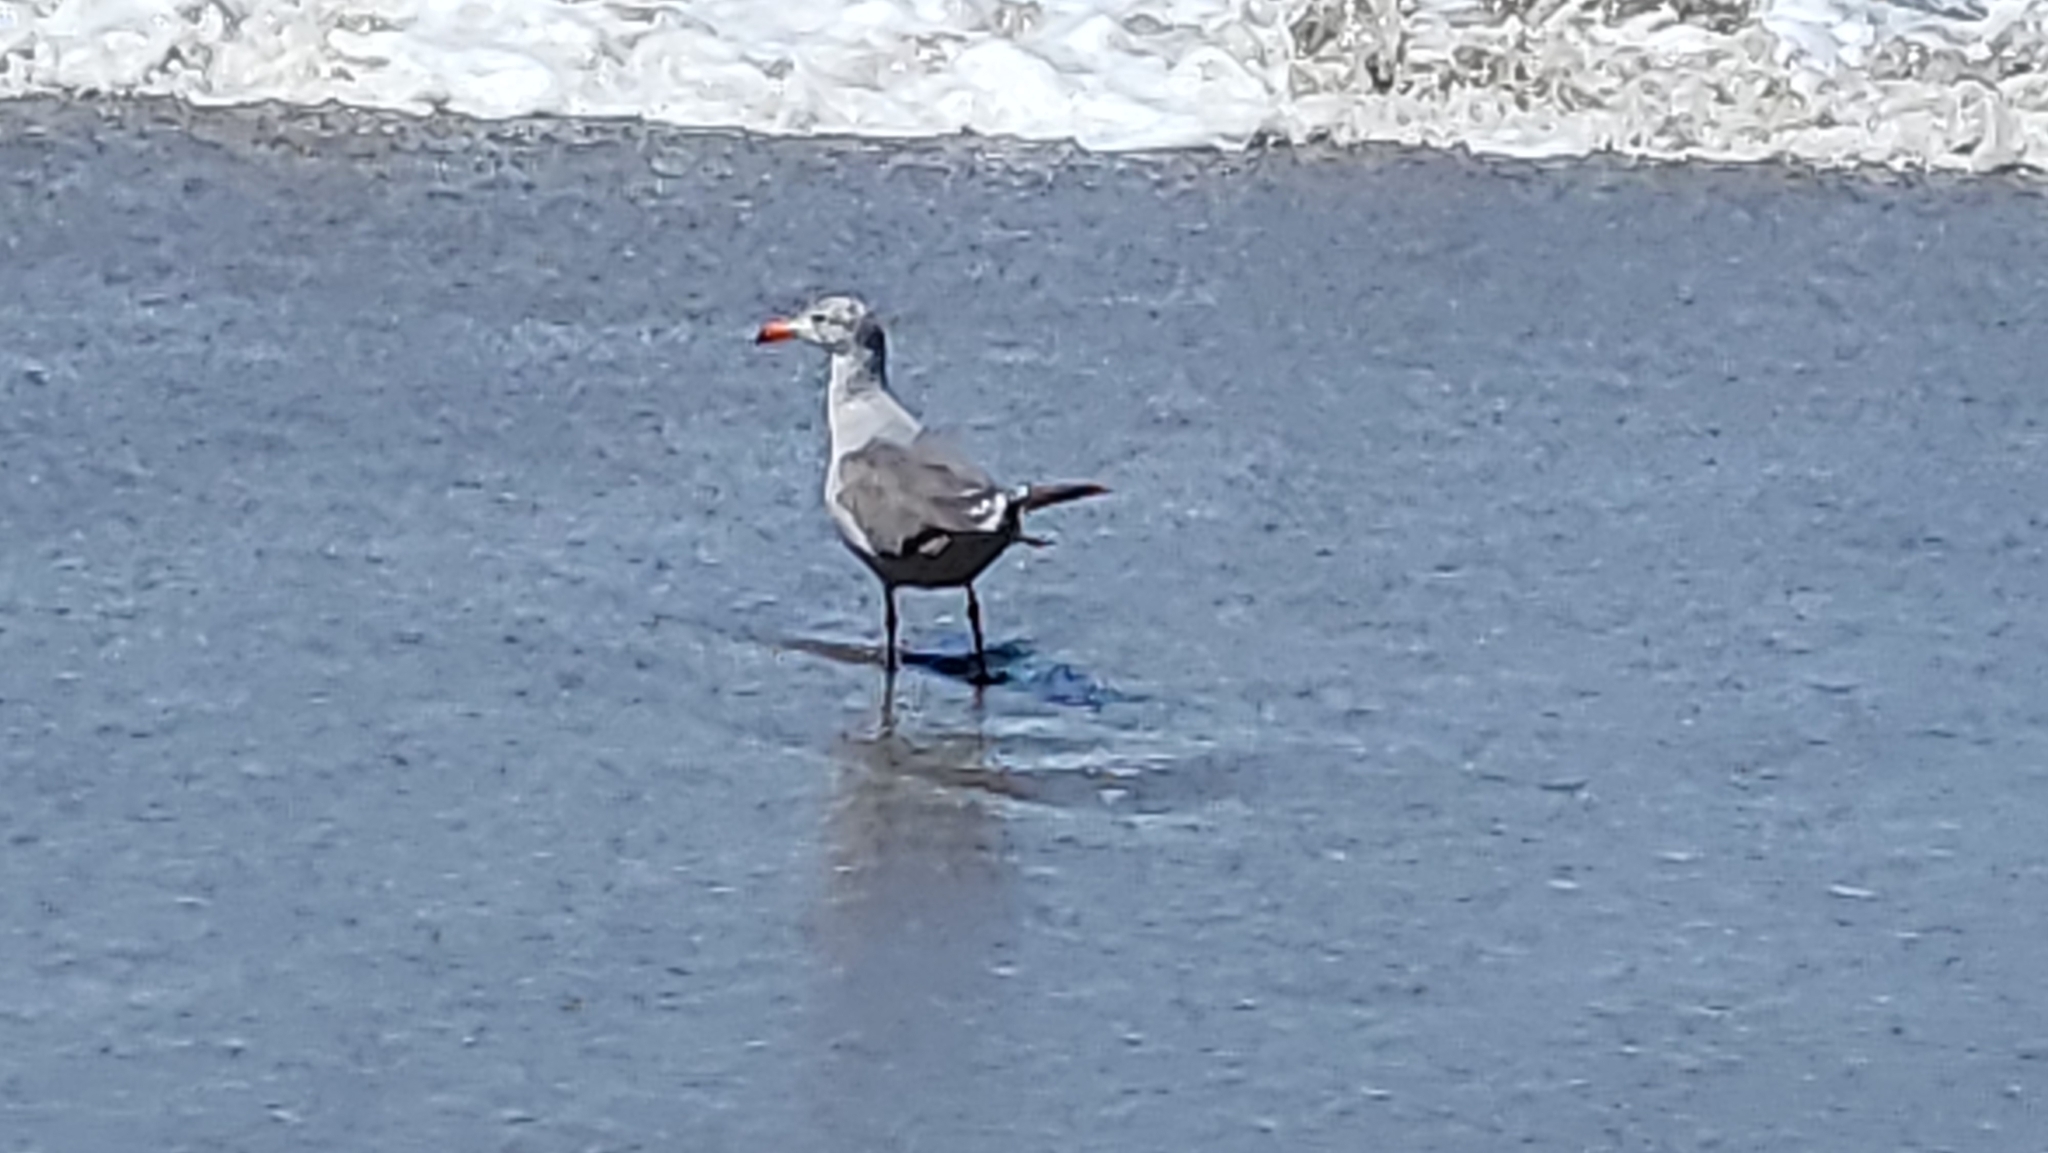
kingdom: Animalia
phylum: Chordata
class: Aves
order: Charadriiformes
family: Laridae
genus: Larus
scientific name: Larus heermanni
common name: Heermann's gull
